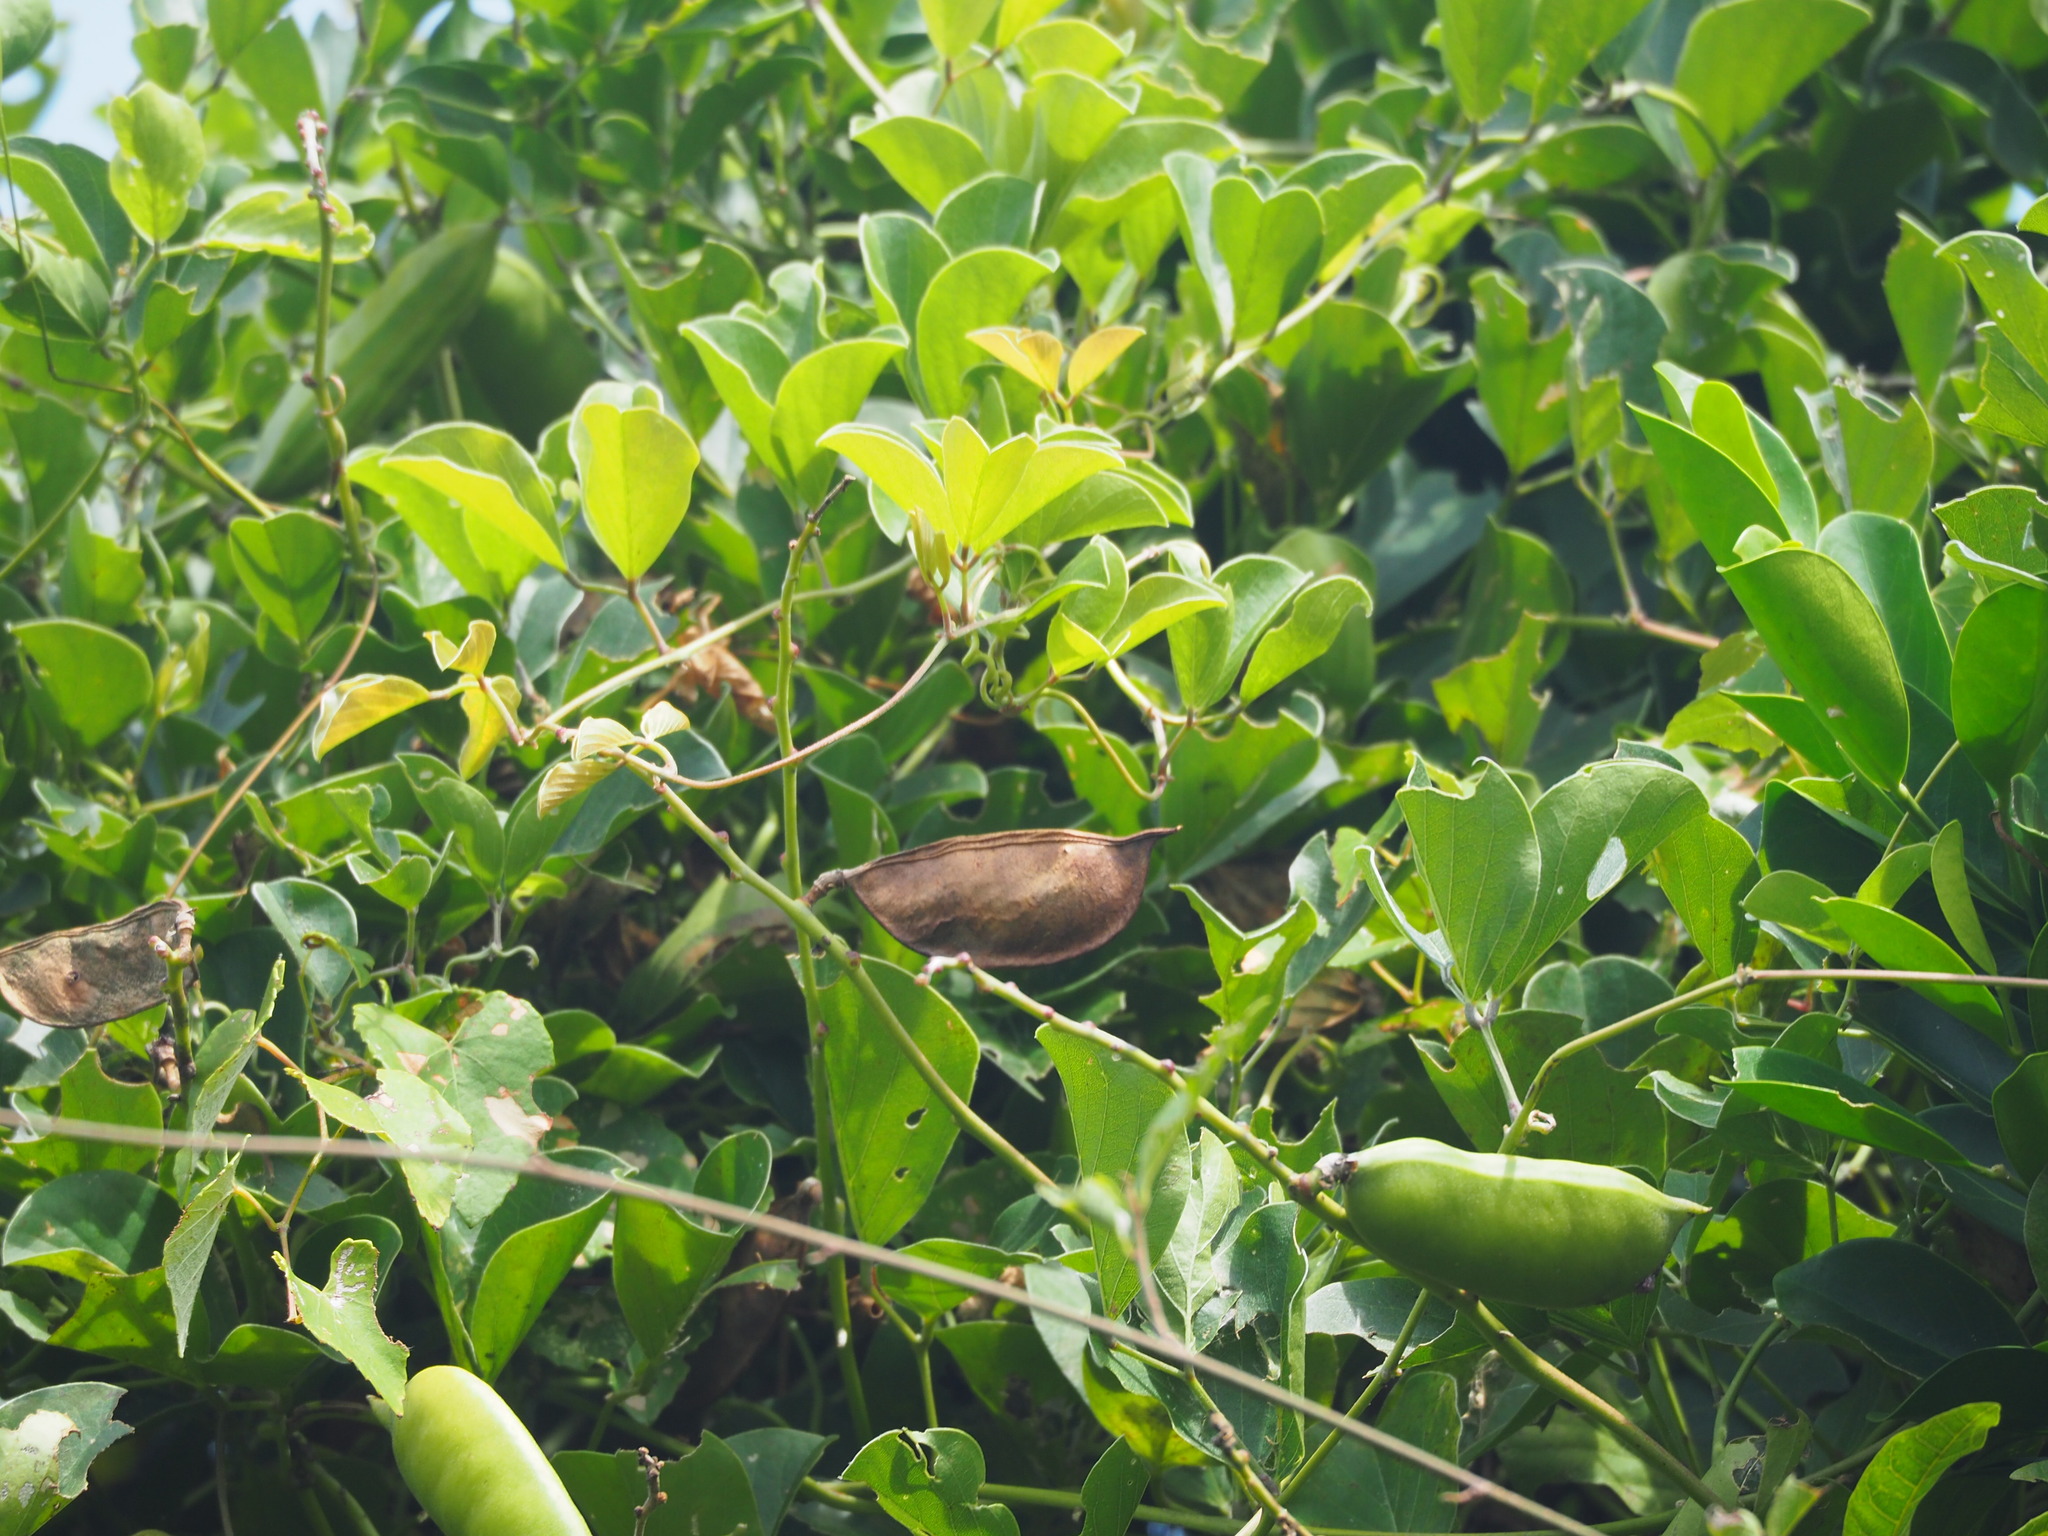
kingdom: Plantae
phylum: Tracheophyta
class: Magnoliopsida
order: Fabales
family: Fabaceae
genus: Canavalia
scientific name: Canavalia lineata
